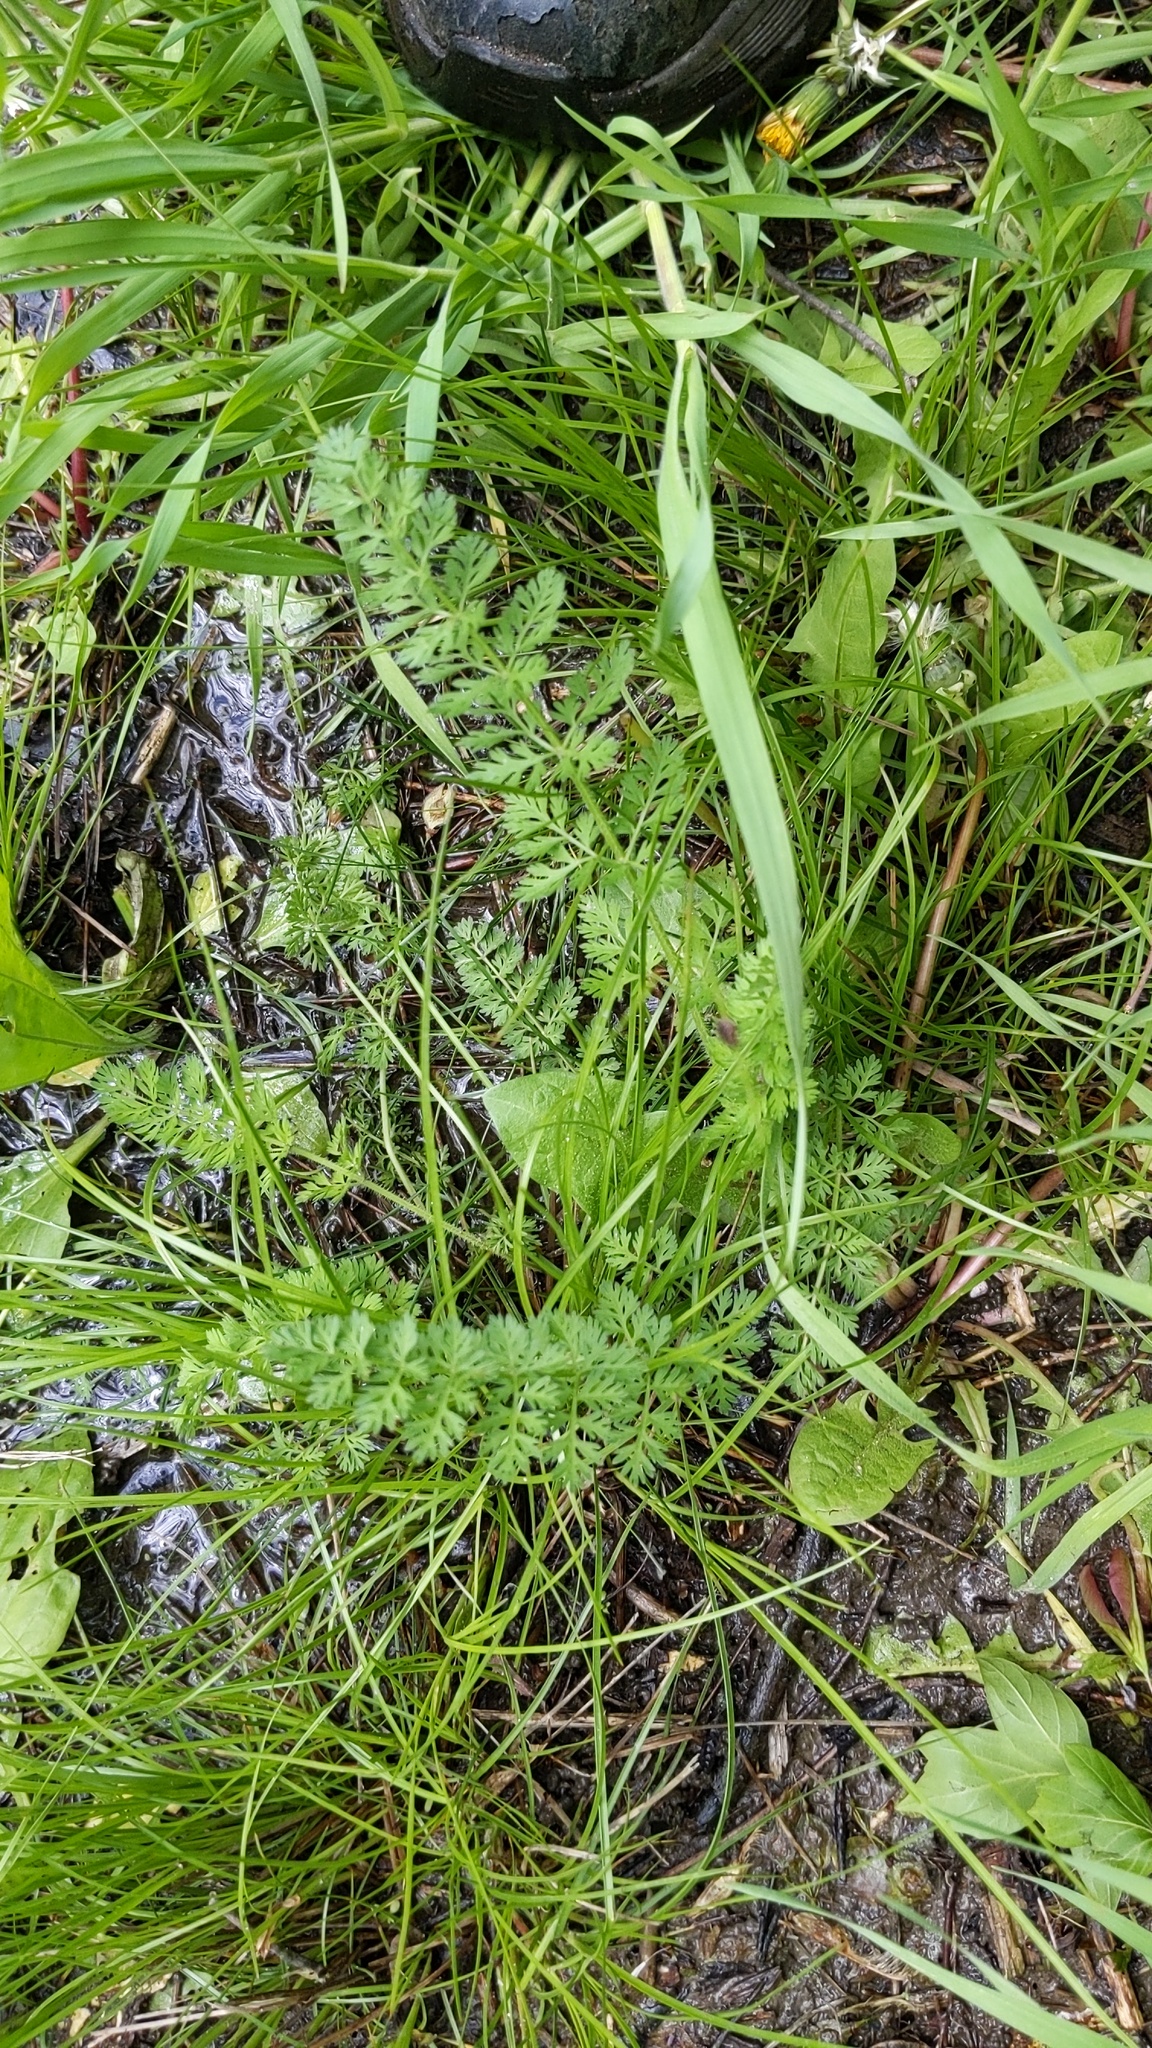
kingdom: Plantae
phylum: Tracheophyta
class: Magnoliopsida
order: Apiales
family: Apiaceae
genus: Daucus
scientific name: Daucus carota
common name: Wild carrot
